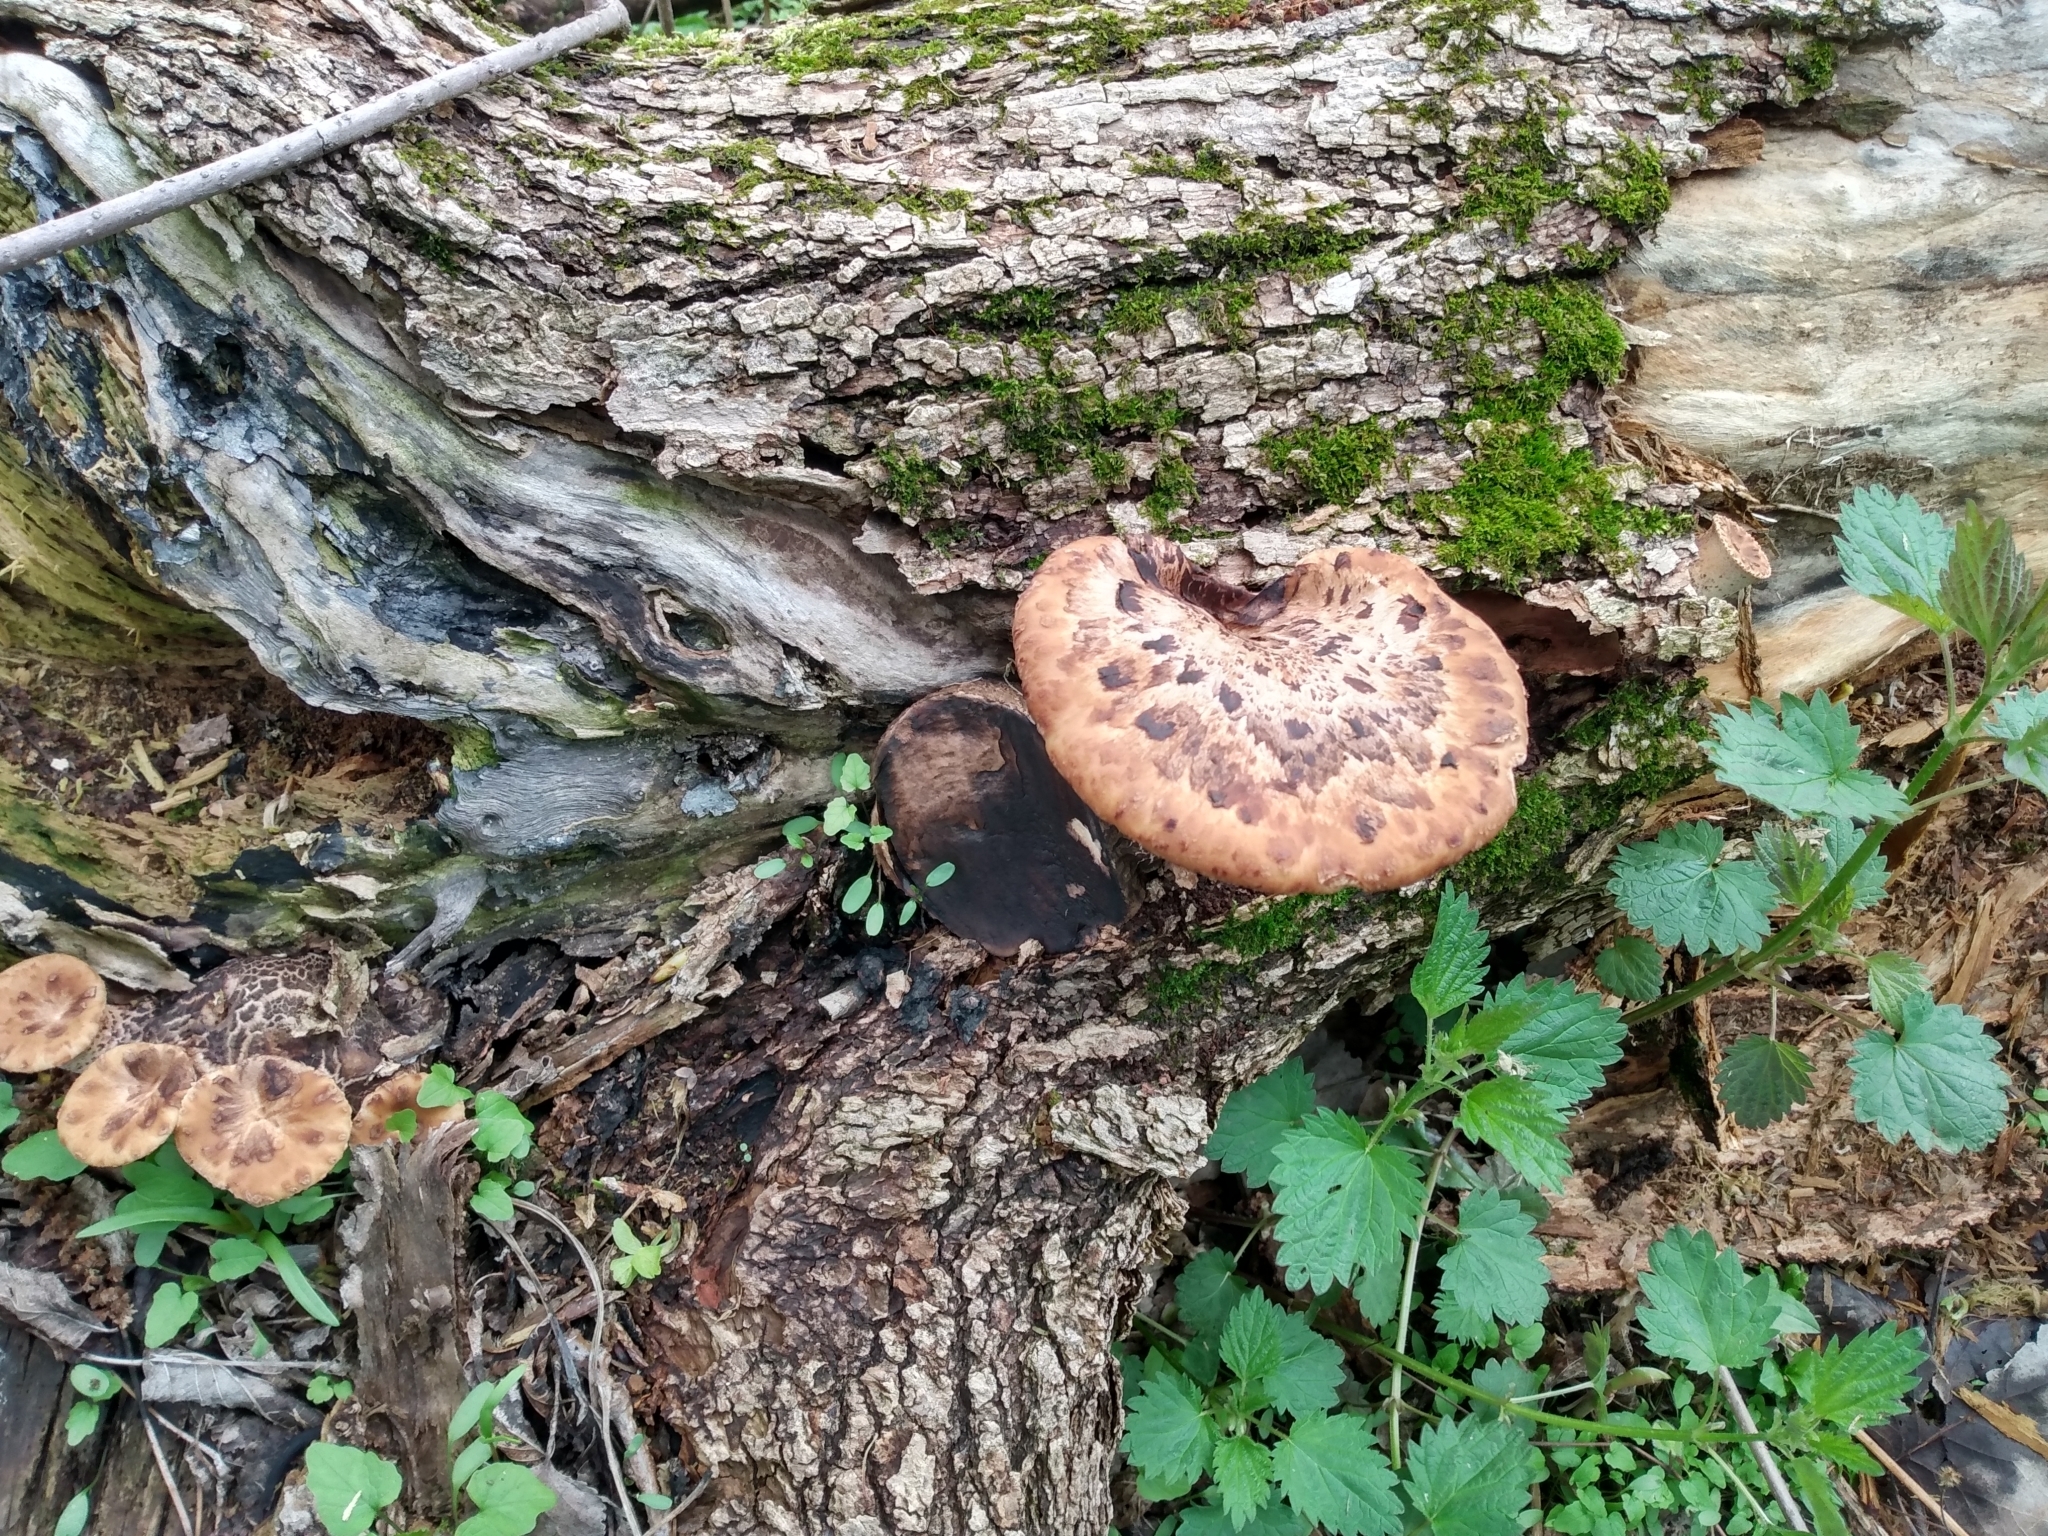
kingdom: Fungi
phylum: Basidiomycota
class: Agaricomycetes
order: Polyporales
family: Polyporaceae
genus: Cerioporus
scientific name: Cerioporus squamosus
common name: Dryad's saddle
